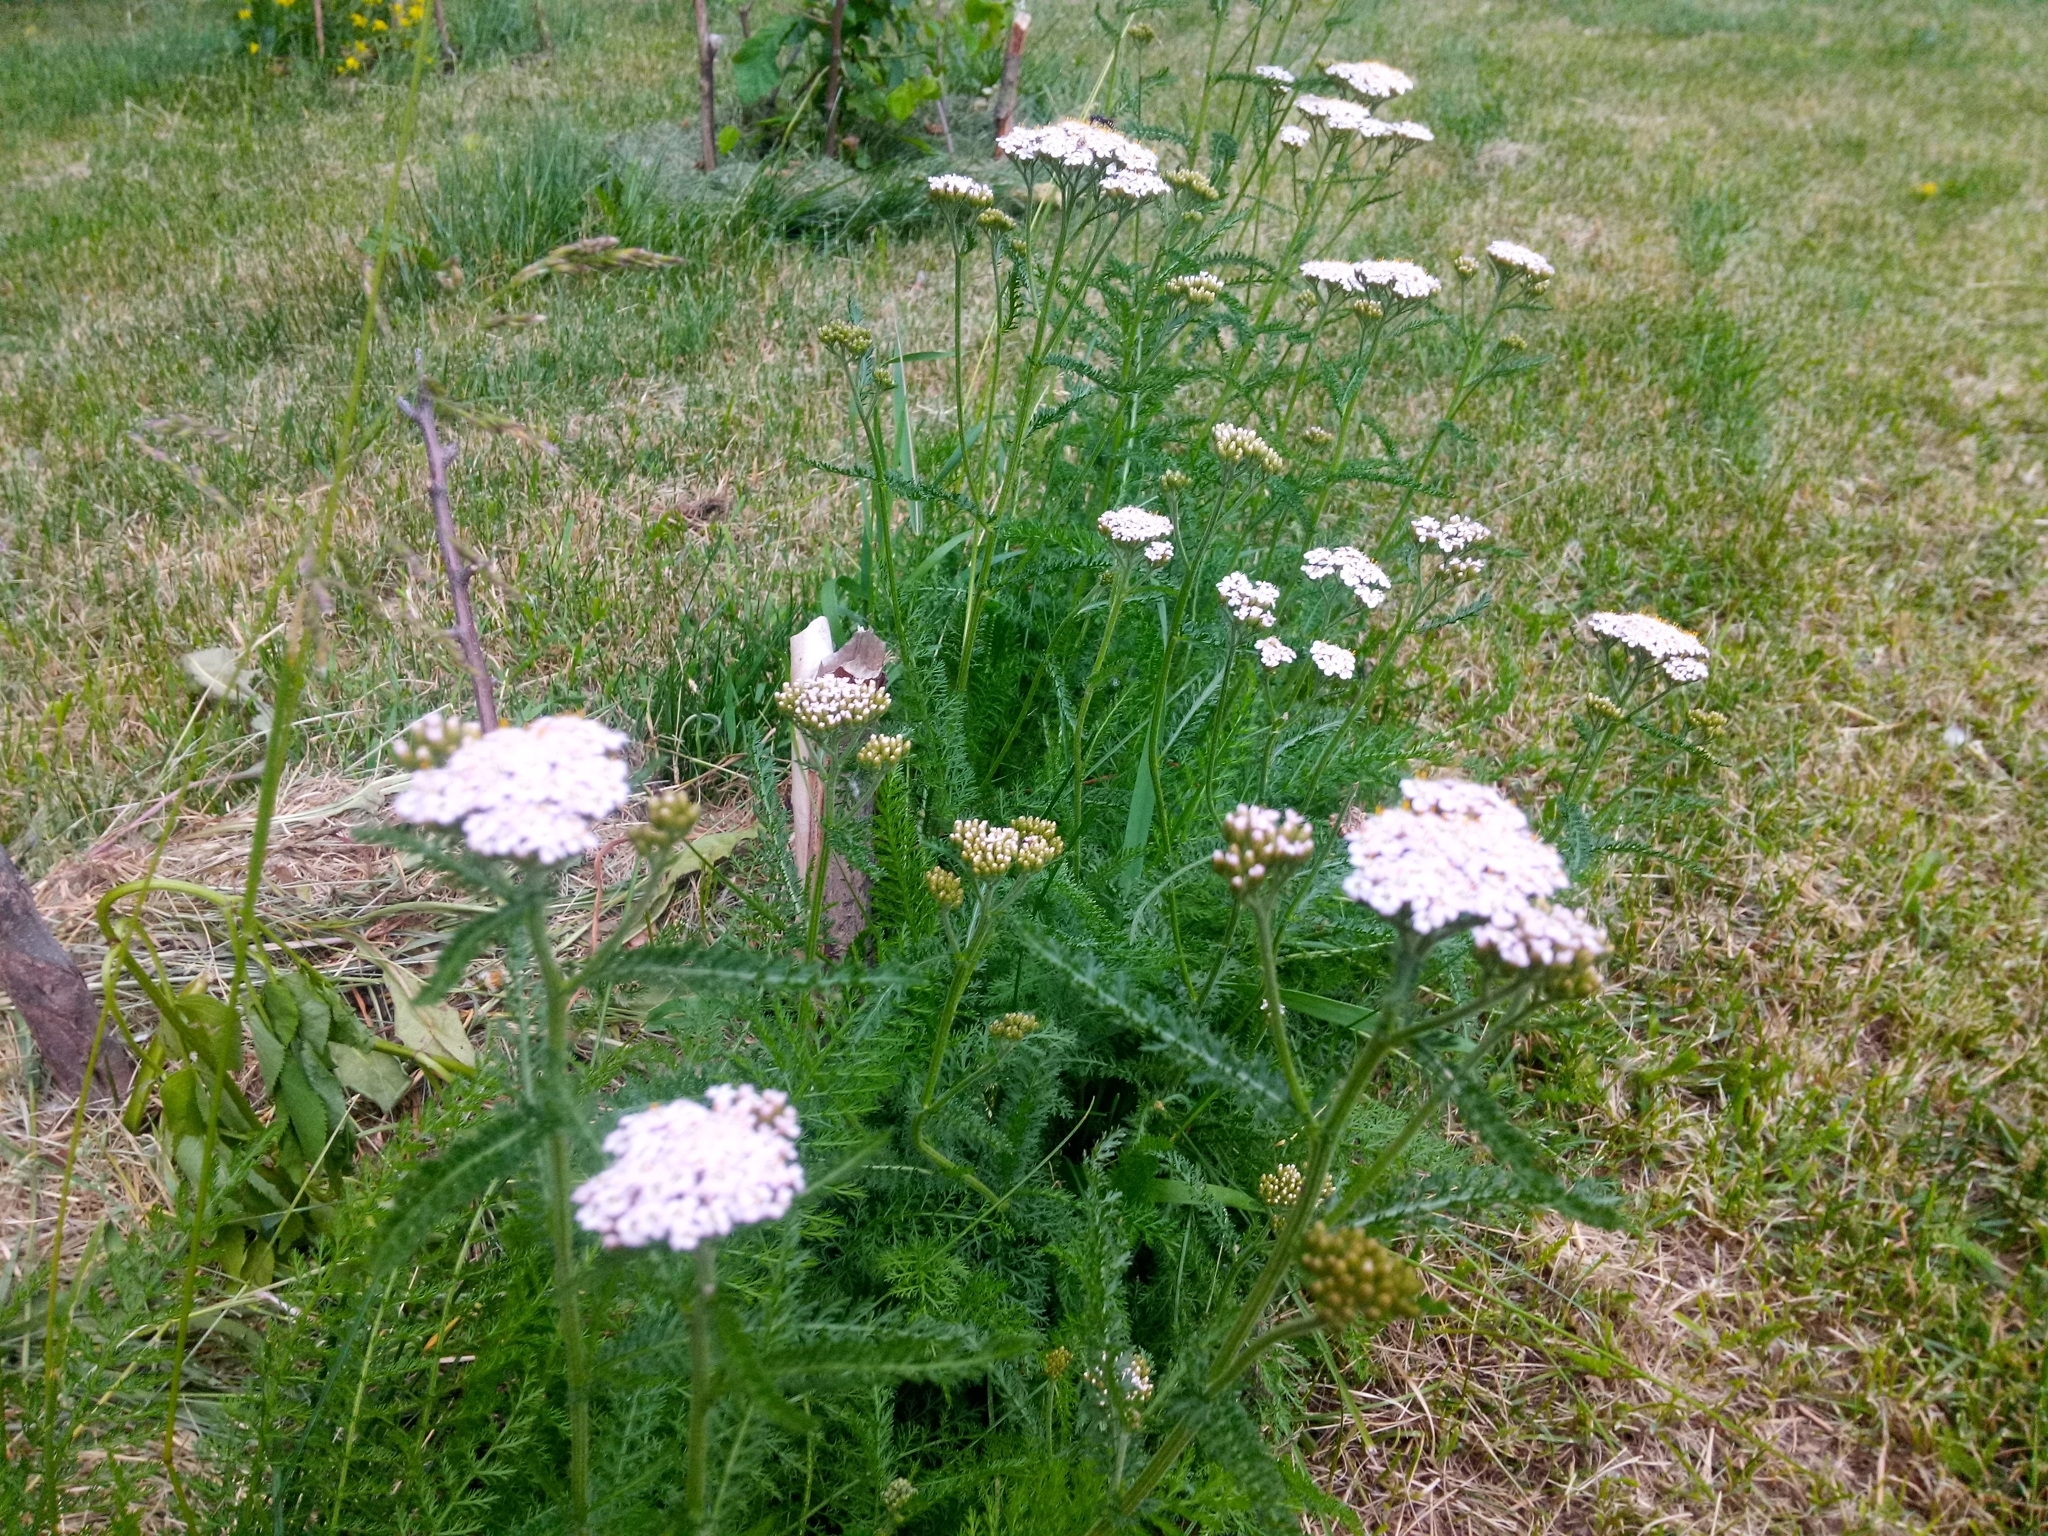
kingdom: Plantae
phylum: Tracheophyta
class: Magnoliopsida
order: Asterales
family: Asteraceae
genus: Achillea
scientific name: Achillea millefolium
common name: Yarrow
